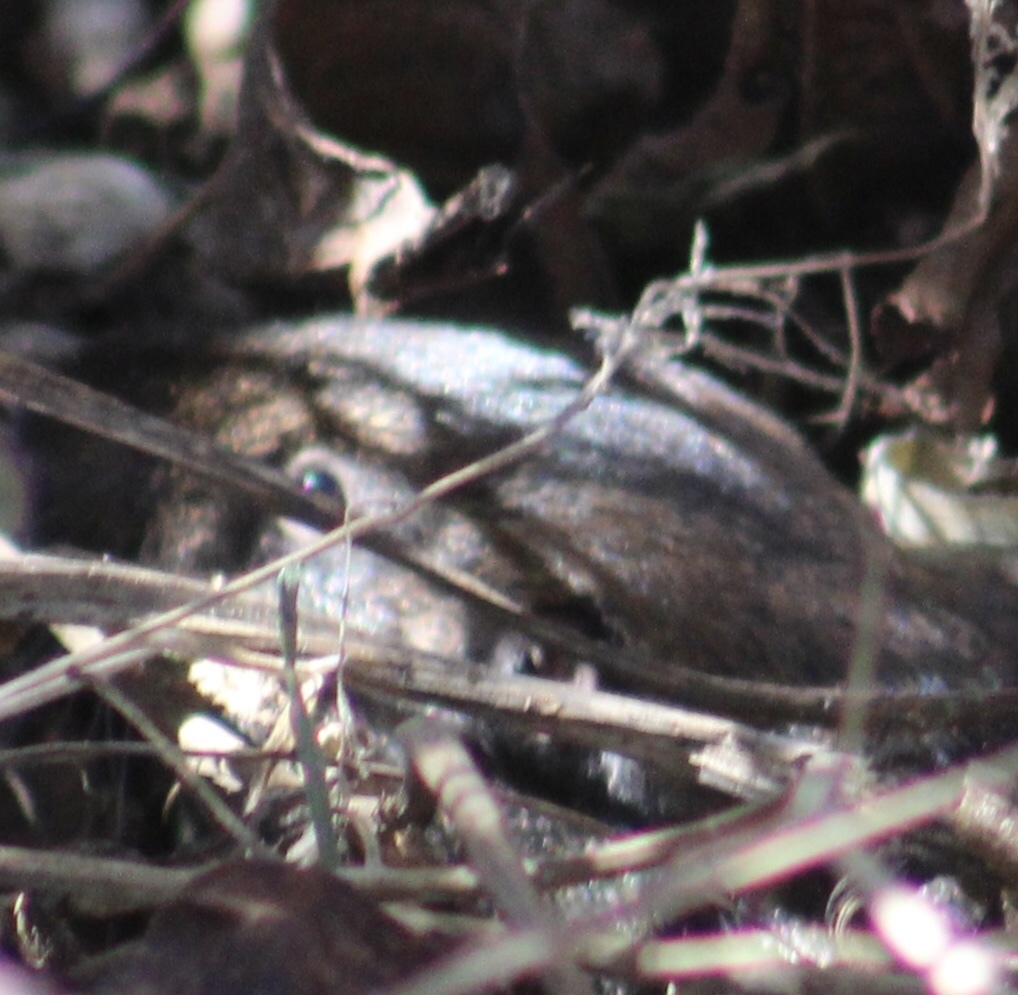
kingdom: Animalia
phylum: Chordata
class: Mammalia
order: Rodentia
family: Geomyidae
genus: Thomomys
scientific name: Thomomys bottae
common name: Botta's pocket gopher
